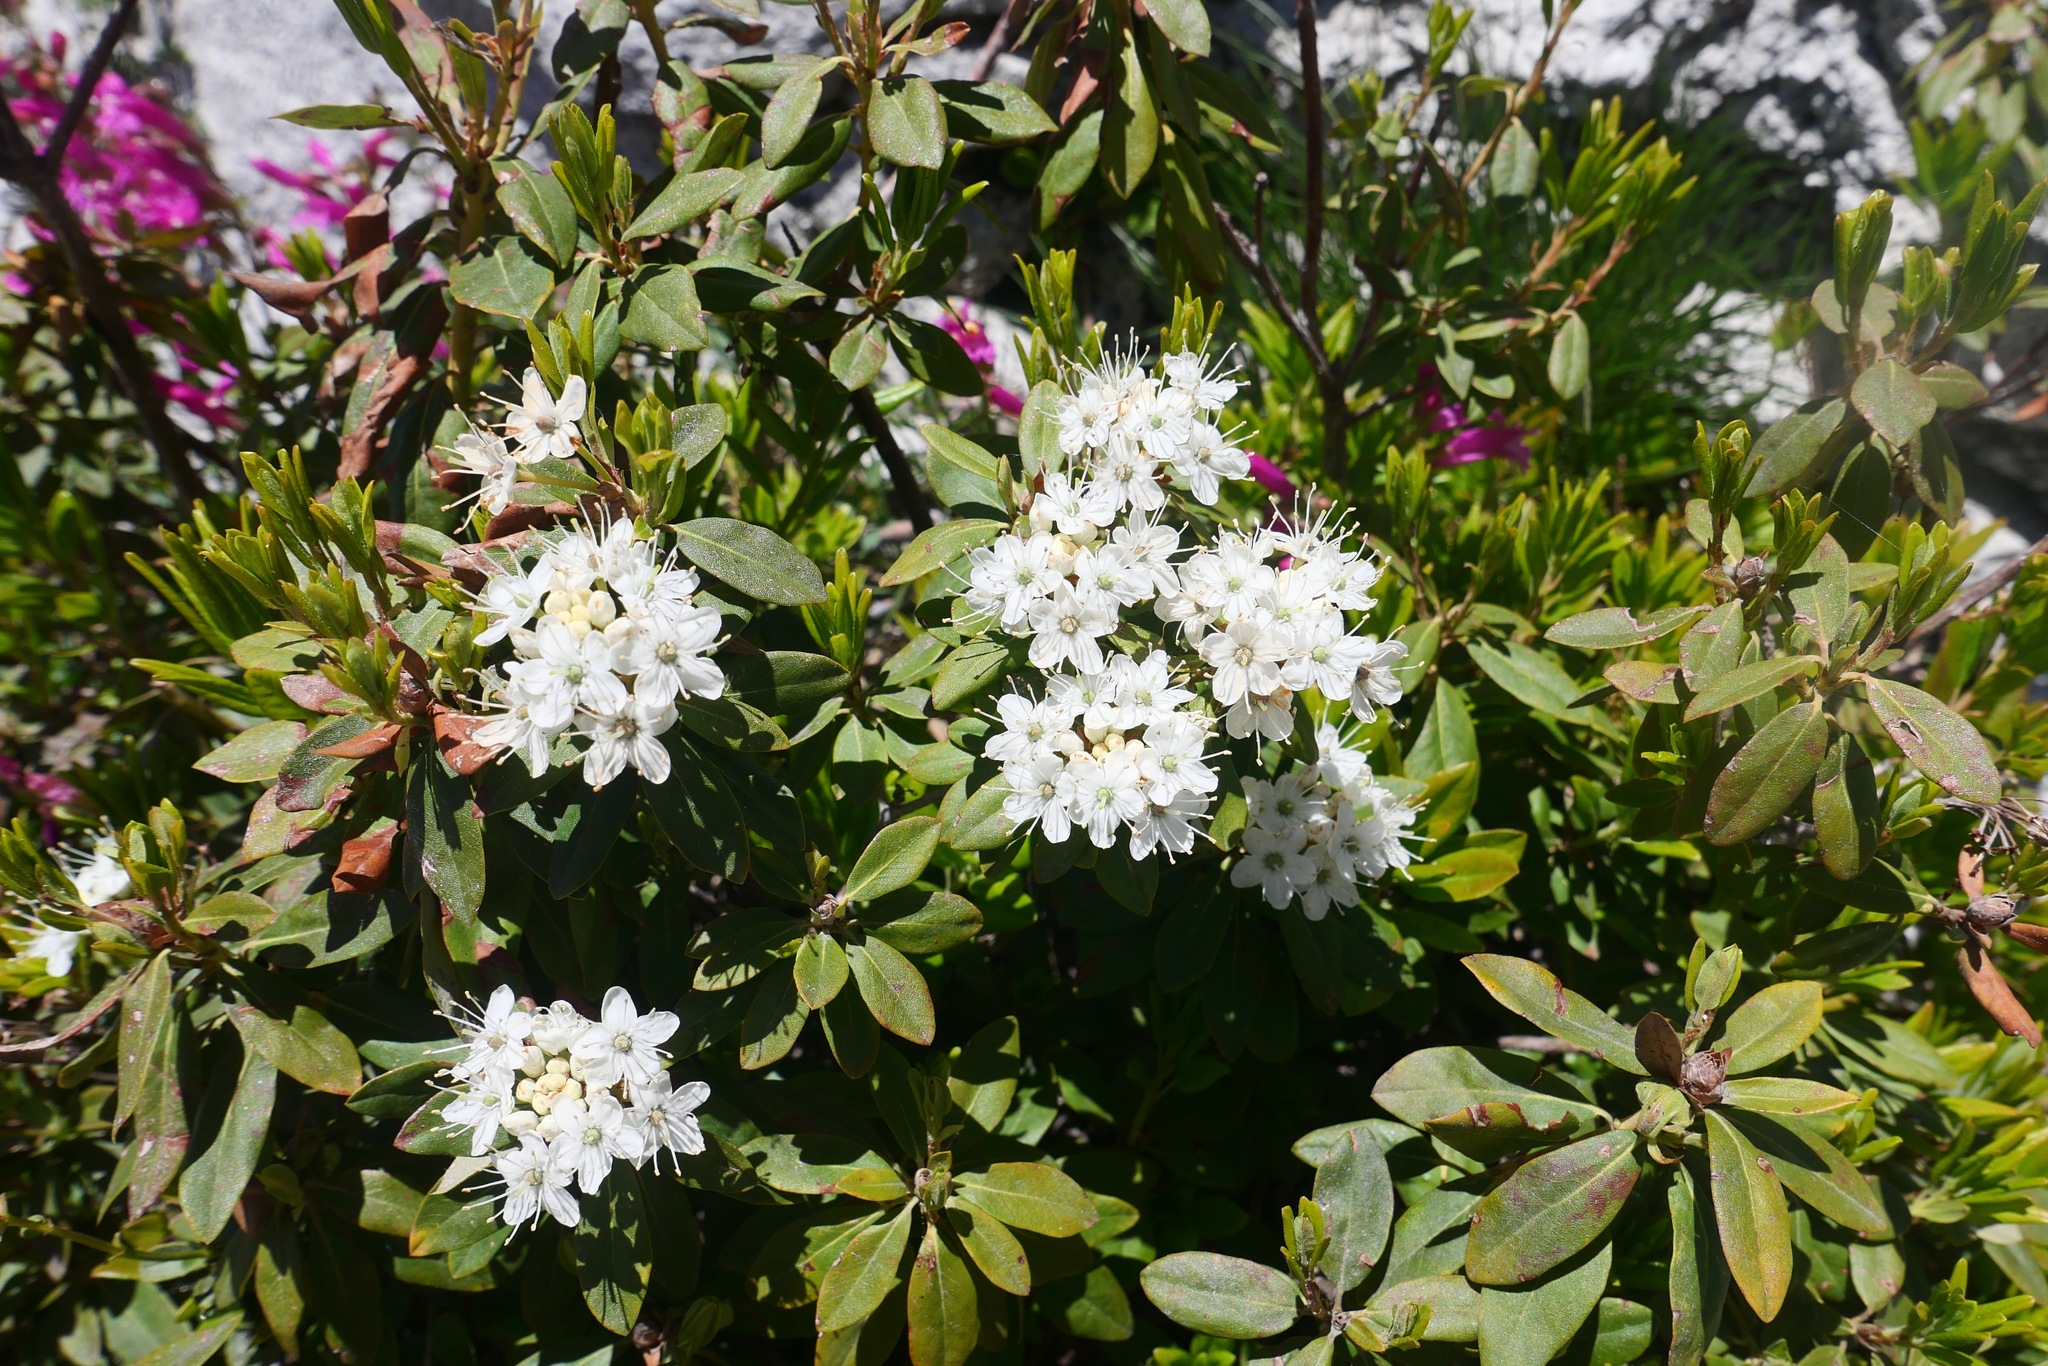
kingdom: Plantae
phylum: Tracheophyta
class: Magnoliopsida
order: Ericales
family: Ericaceae
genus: Rhododendron
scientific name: Rhododendron columbianum
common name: Western labrador tea
